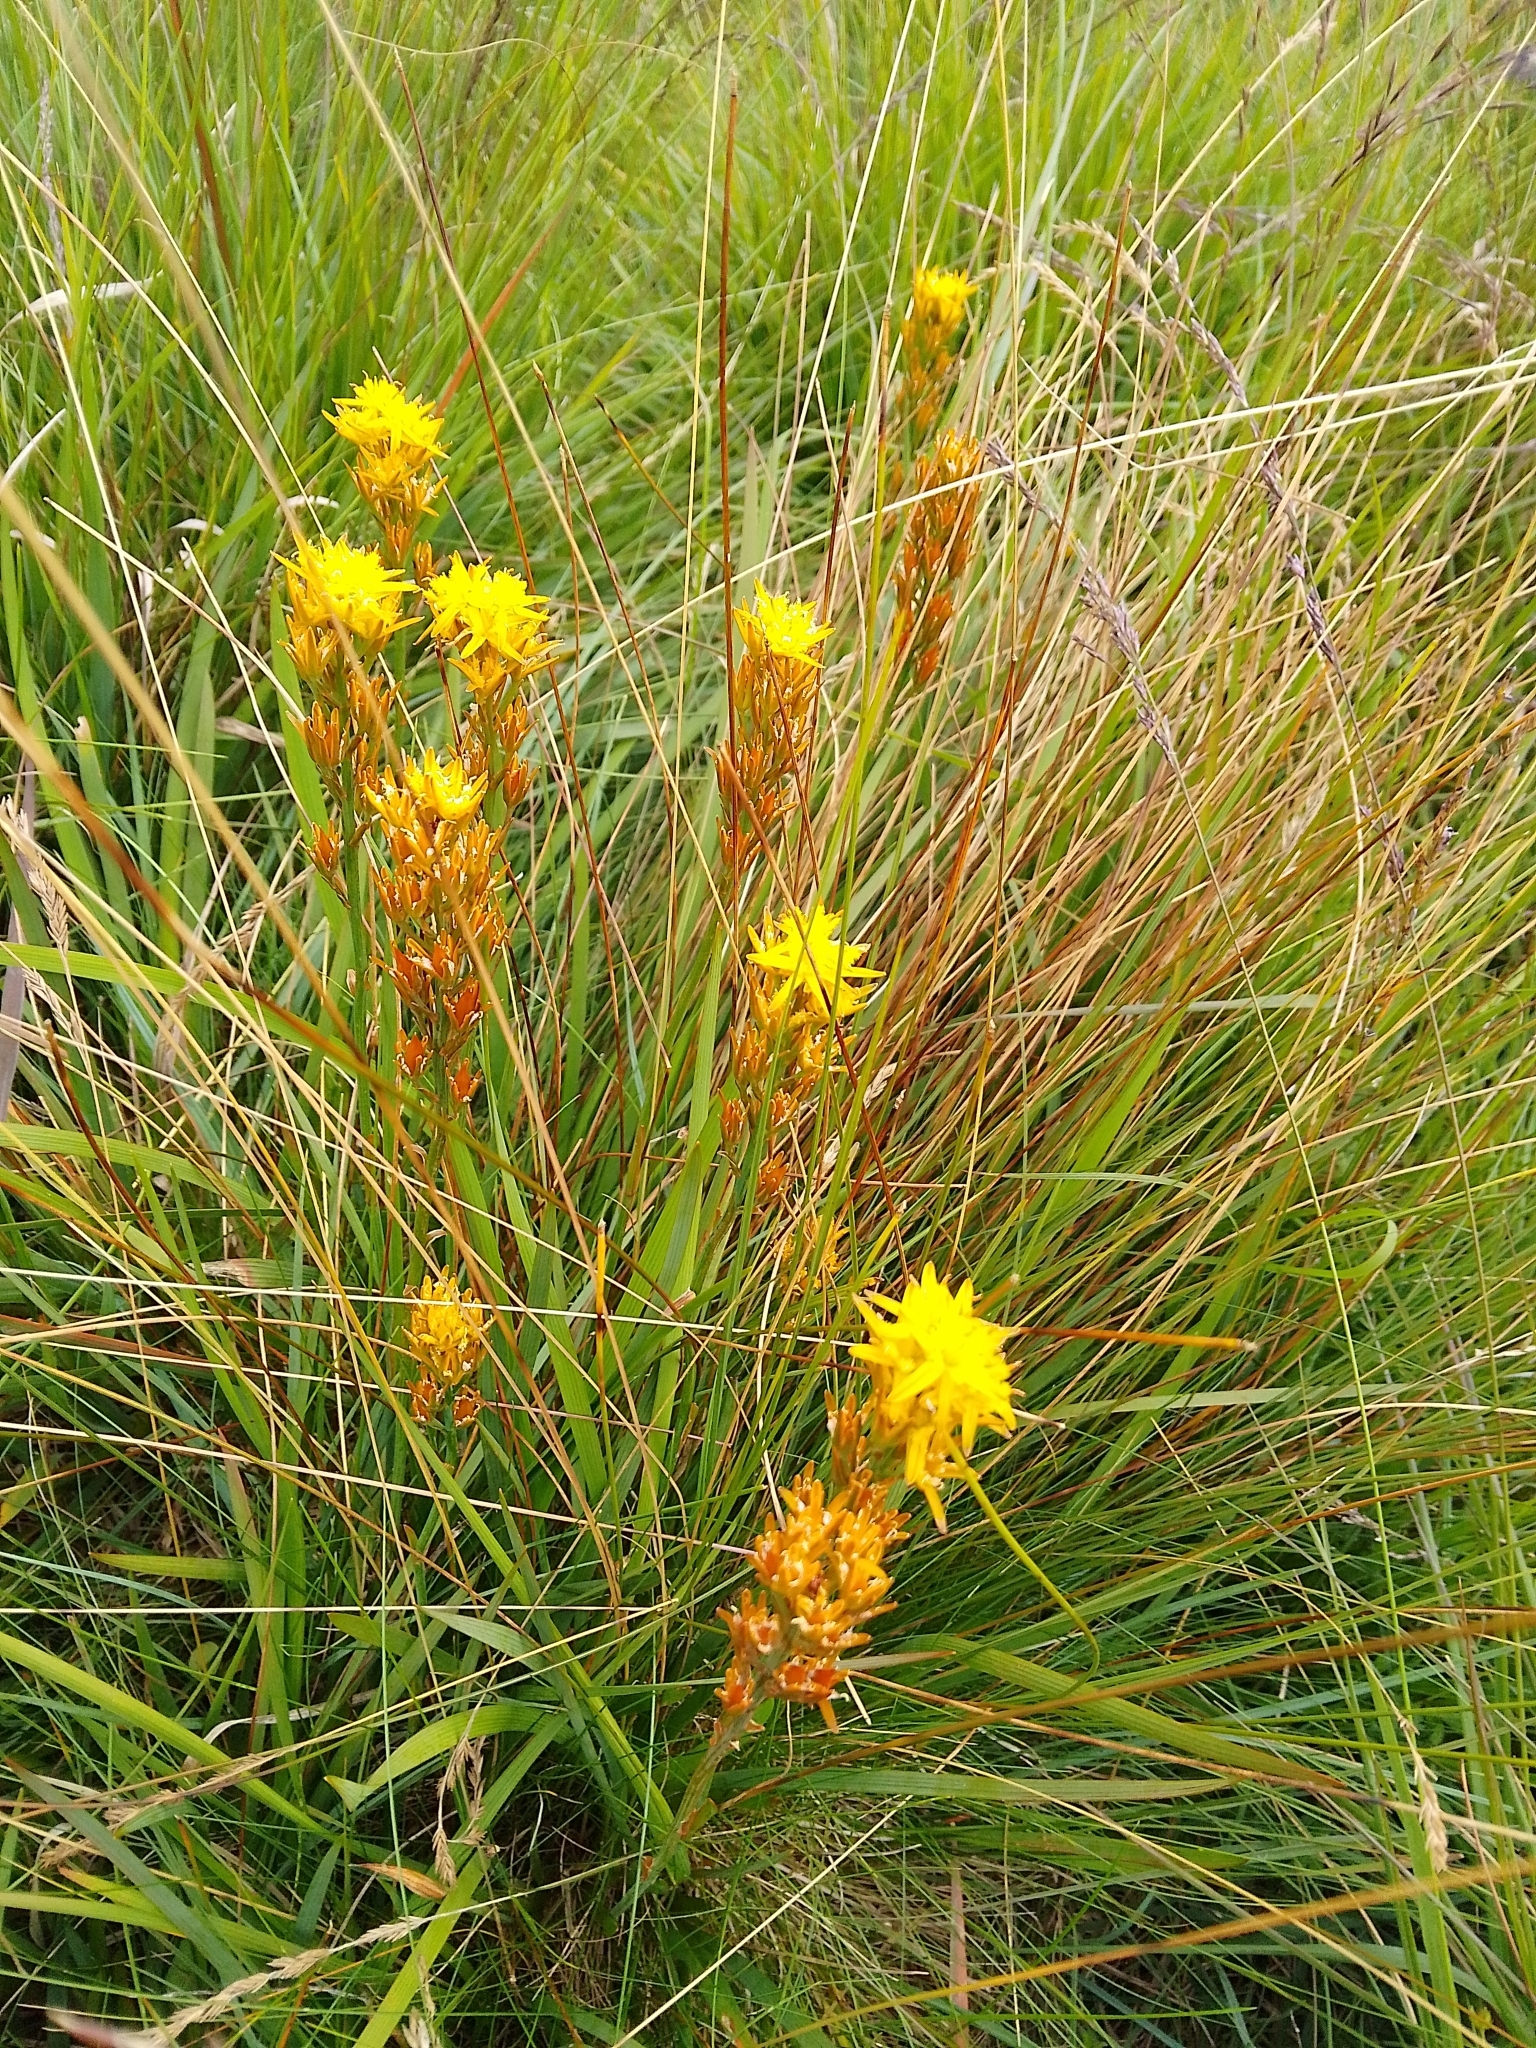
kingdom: Plantae
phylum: Tracheophyta
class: Liliopsida
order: Dioscoreales
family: Nartheciaceae
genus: Narthecium
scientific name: Narthecium ossifragum
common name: Bog asphodel
